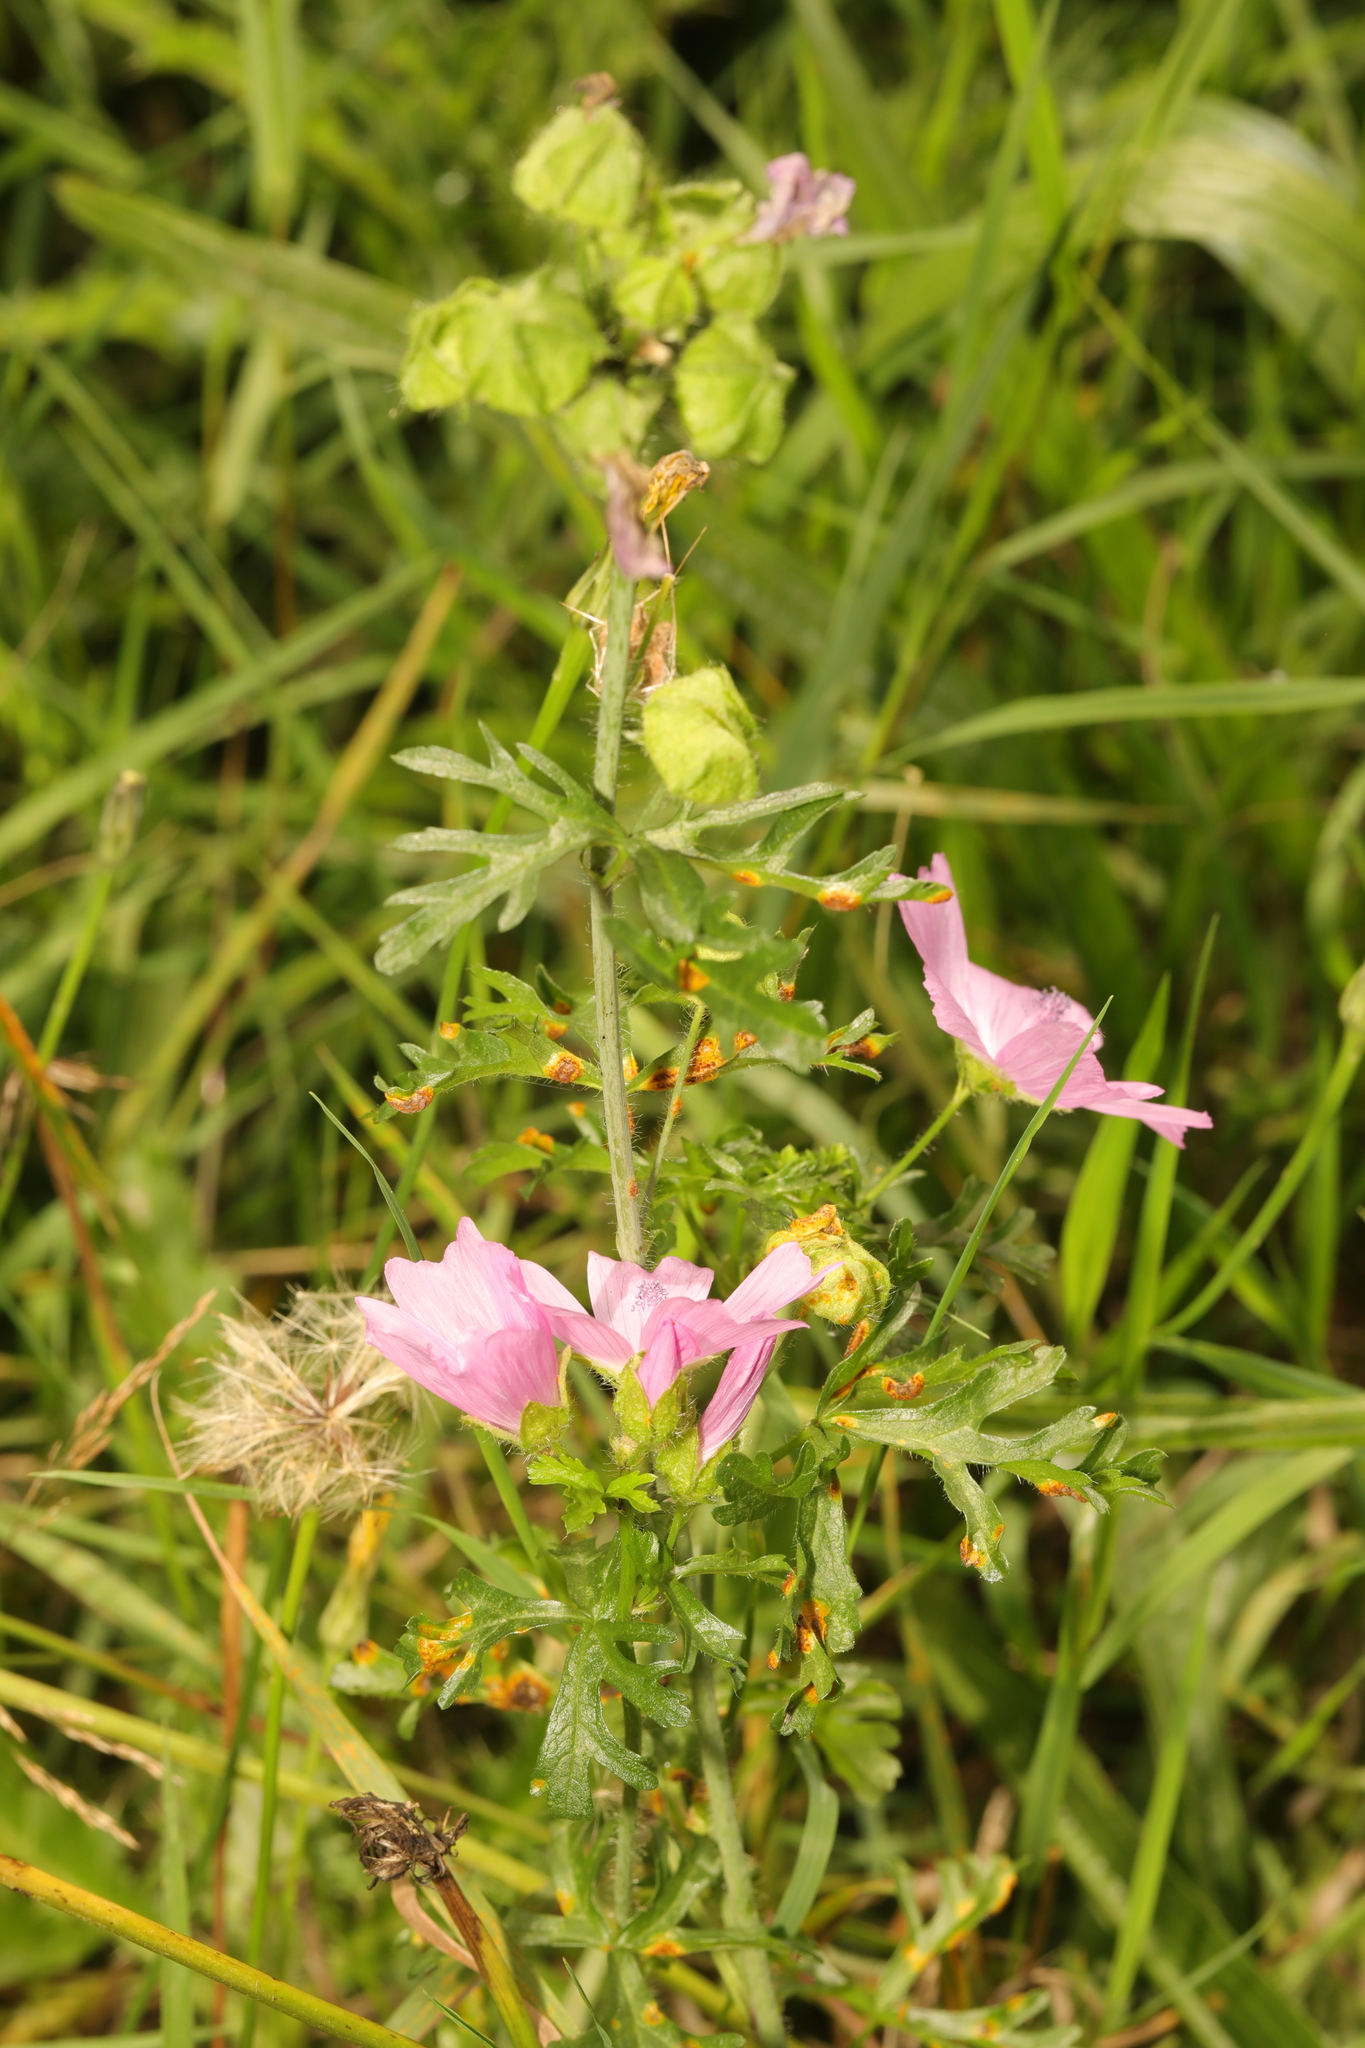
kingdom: Plantae
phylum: Tracheophyta
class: Magnoliopsida
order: Malvales
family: Malvaceae
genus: Malva
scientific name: Malva moschata
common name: Musk mallow
